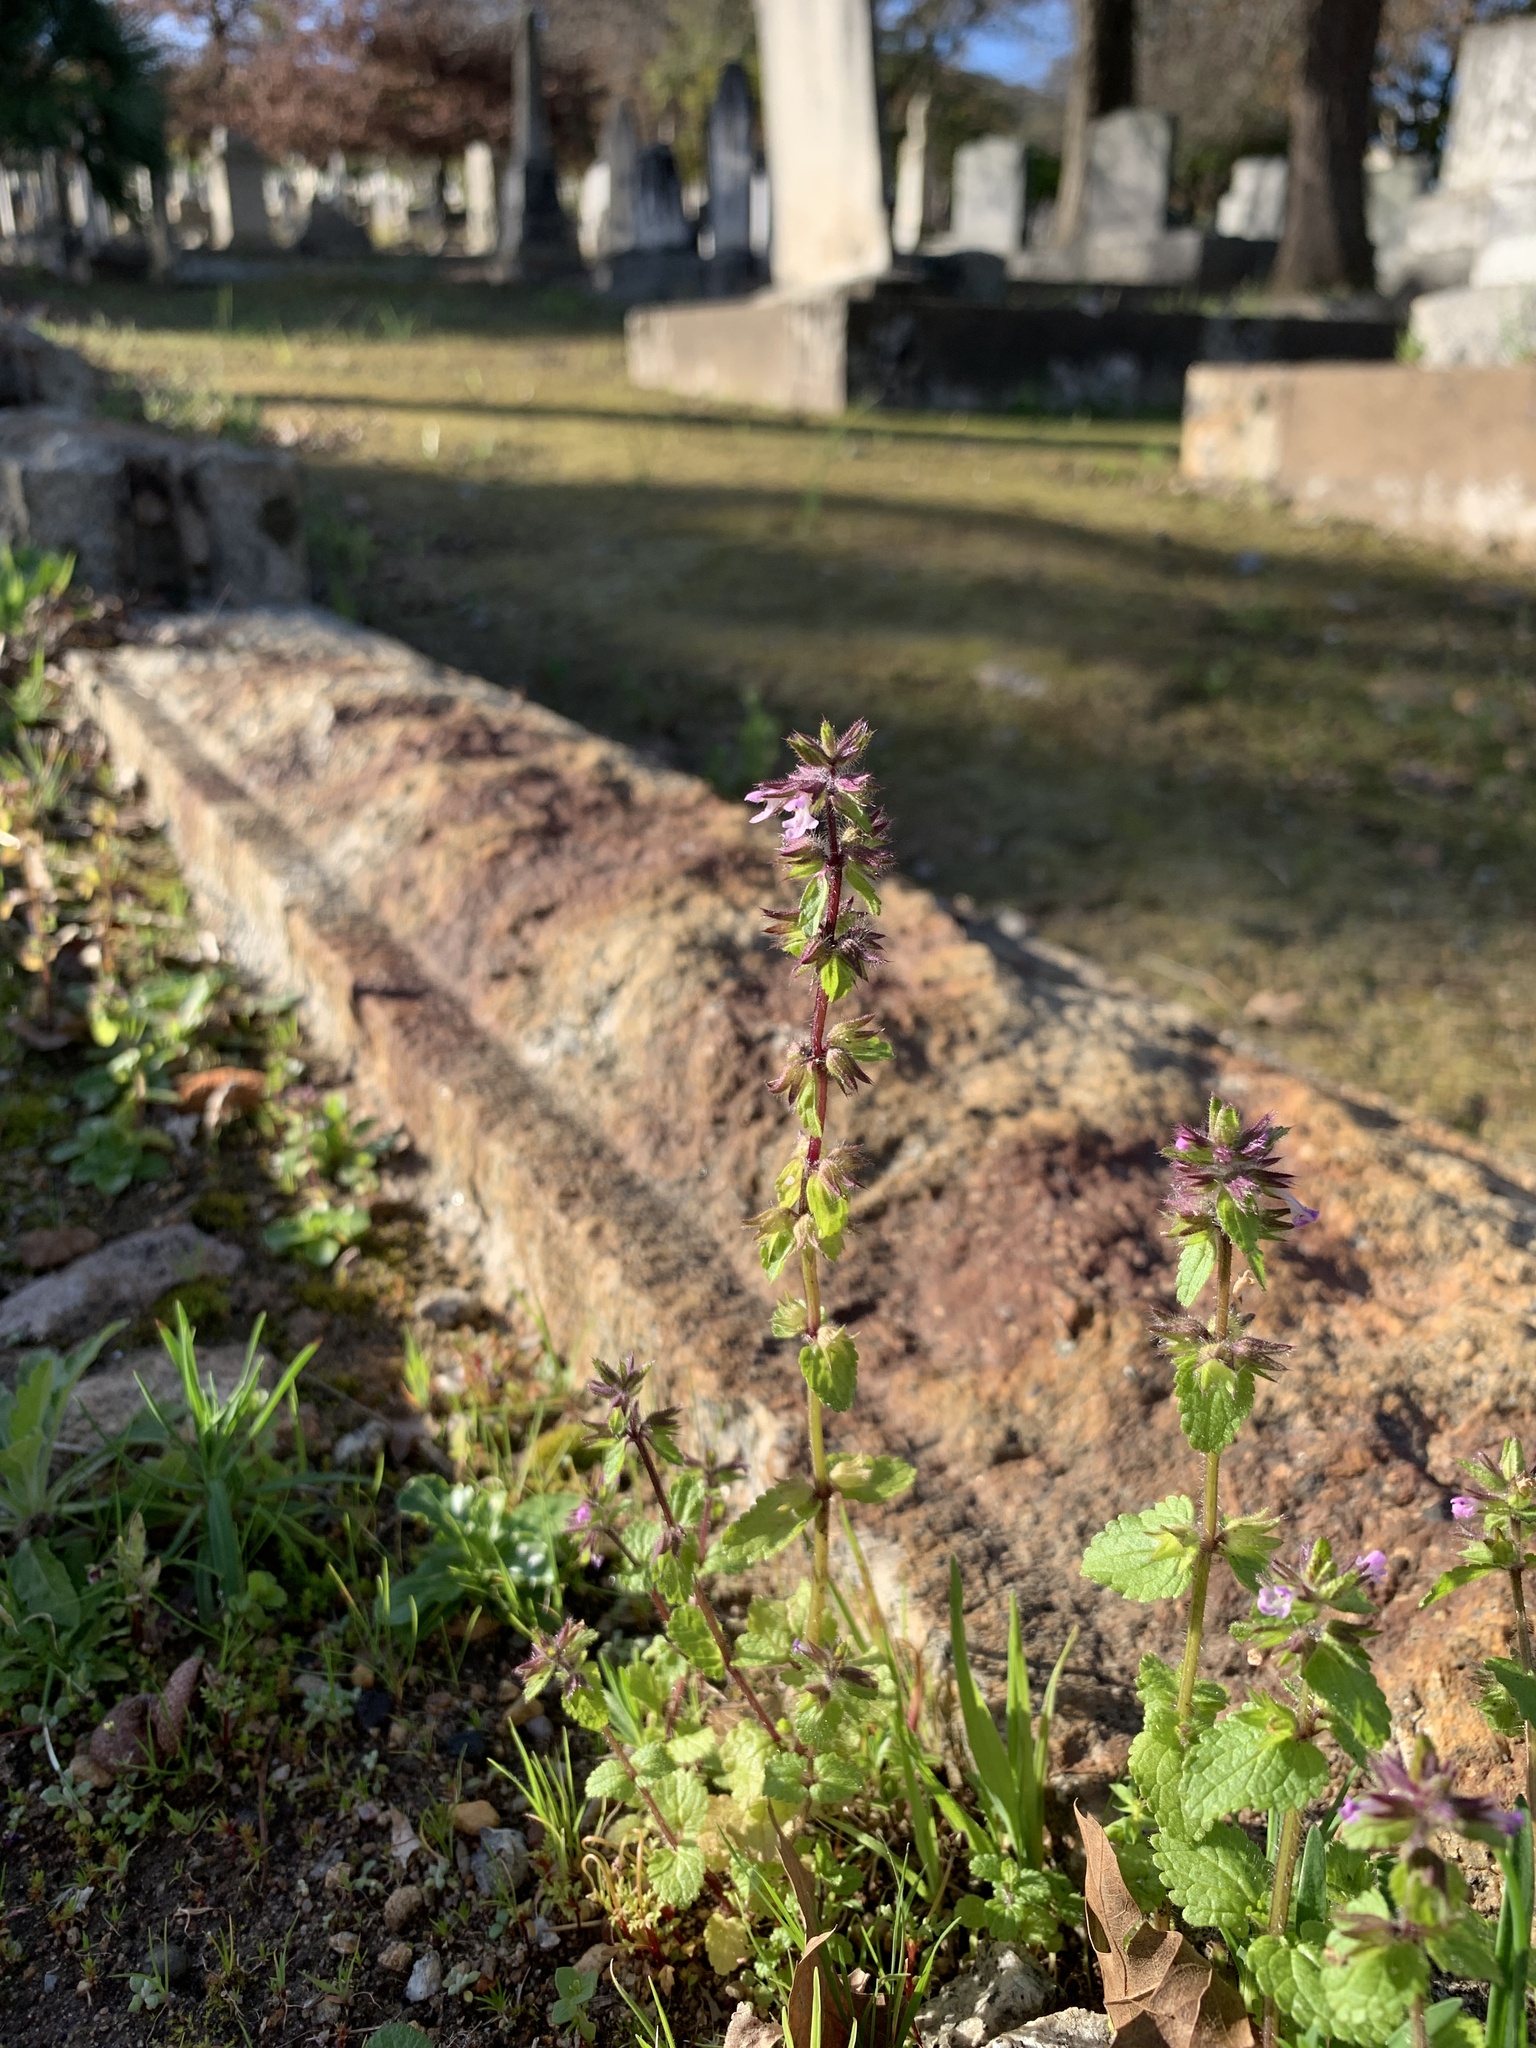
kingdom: Plantae
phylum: Tracheophyta
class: Magnoliopsida
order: Lamiales
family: Lamiaceae
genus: Stachys
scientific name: Stachys arvensis
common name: Field woundwort
